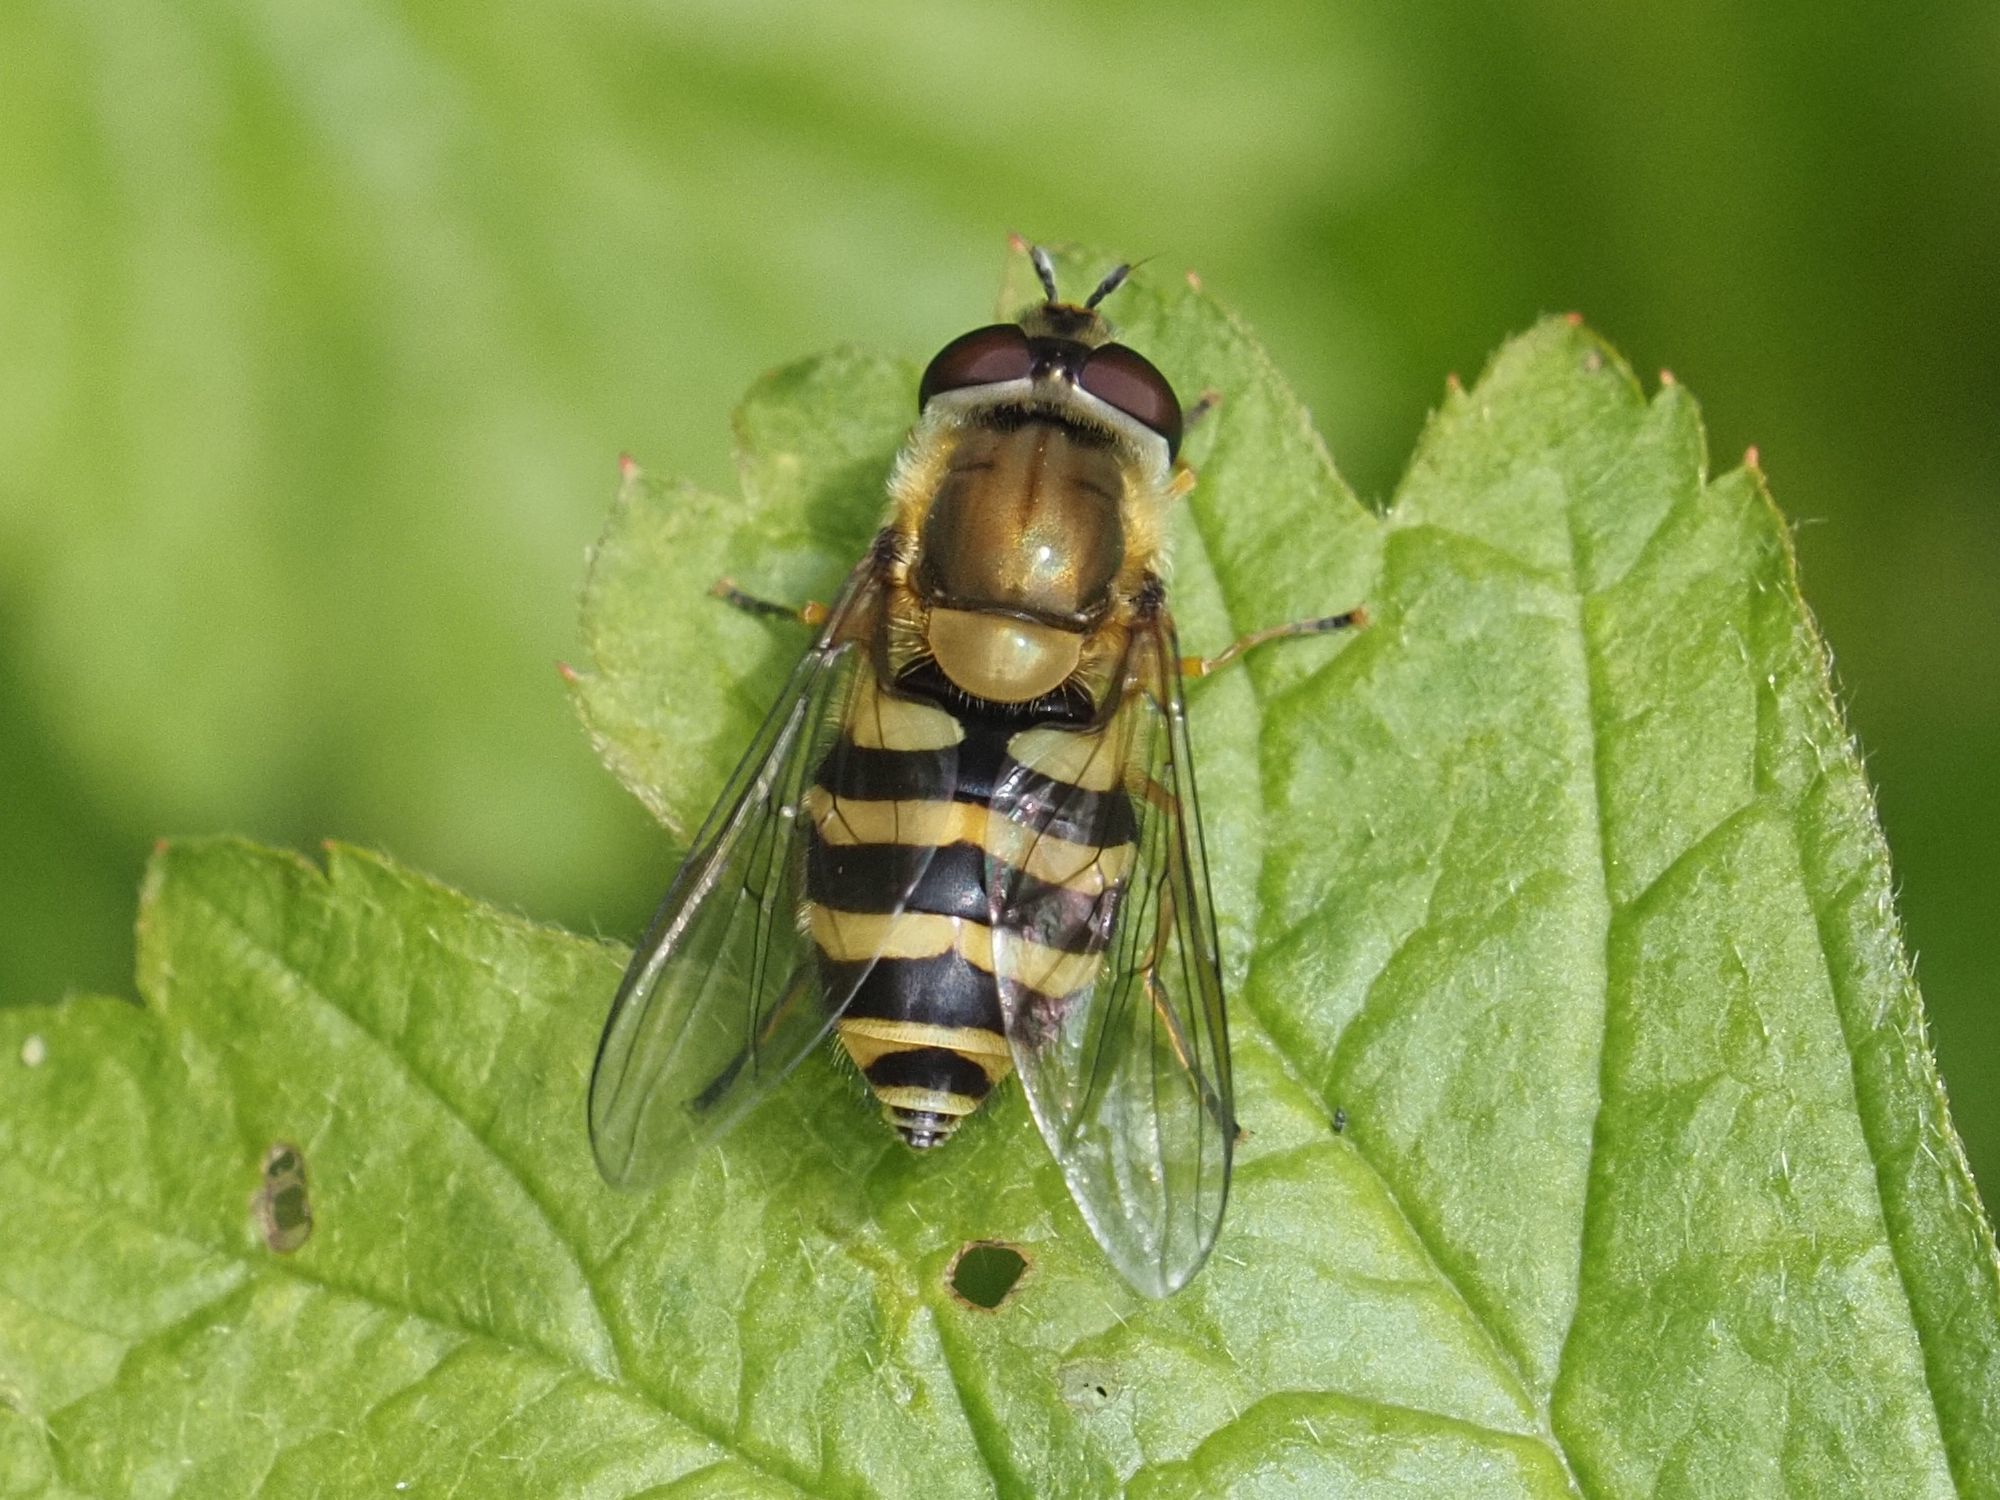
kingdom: Animalia
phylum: Arthropoda
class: Insecta
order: Diptera
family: Syrphidae
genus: Syrphus
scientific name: Syrphus
